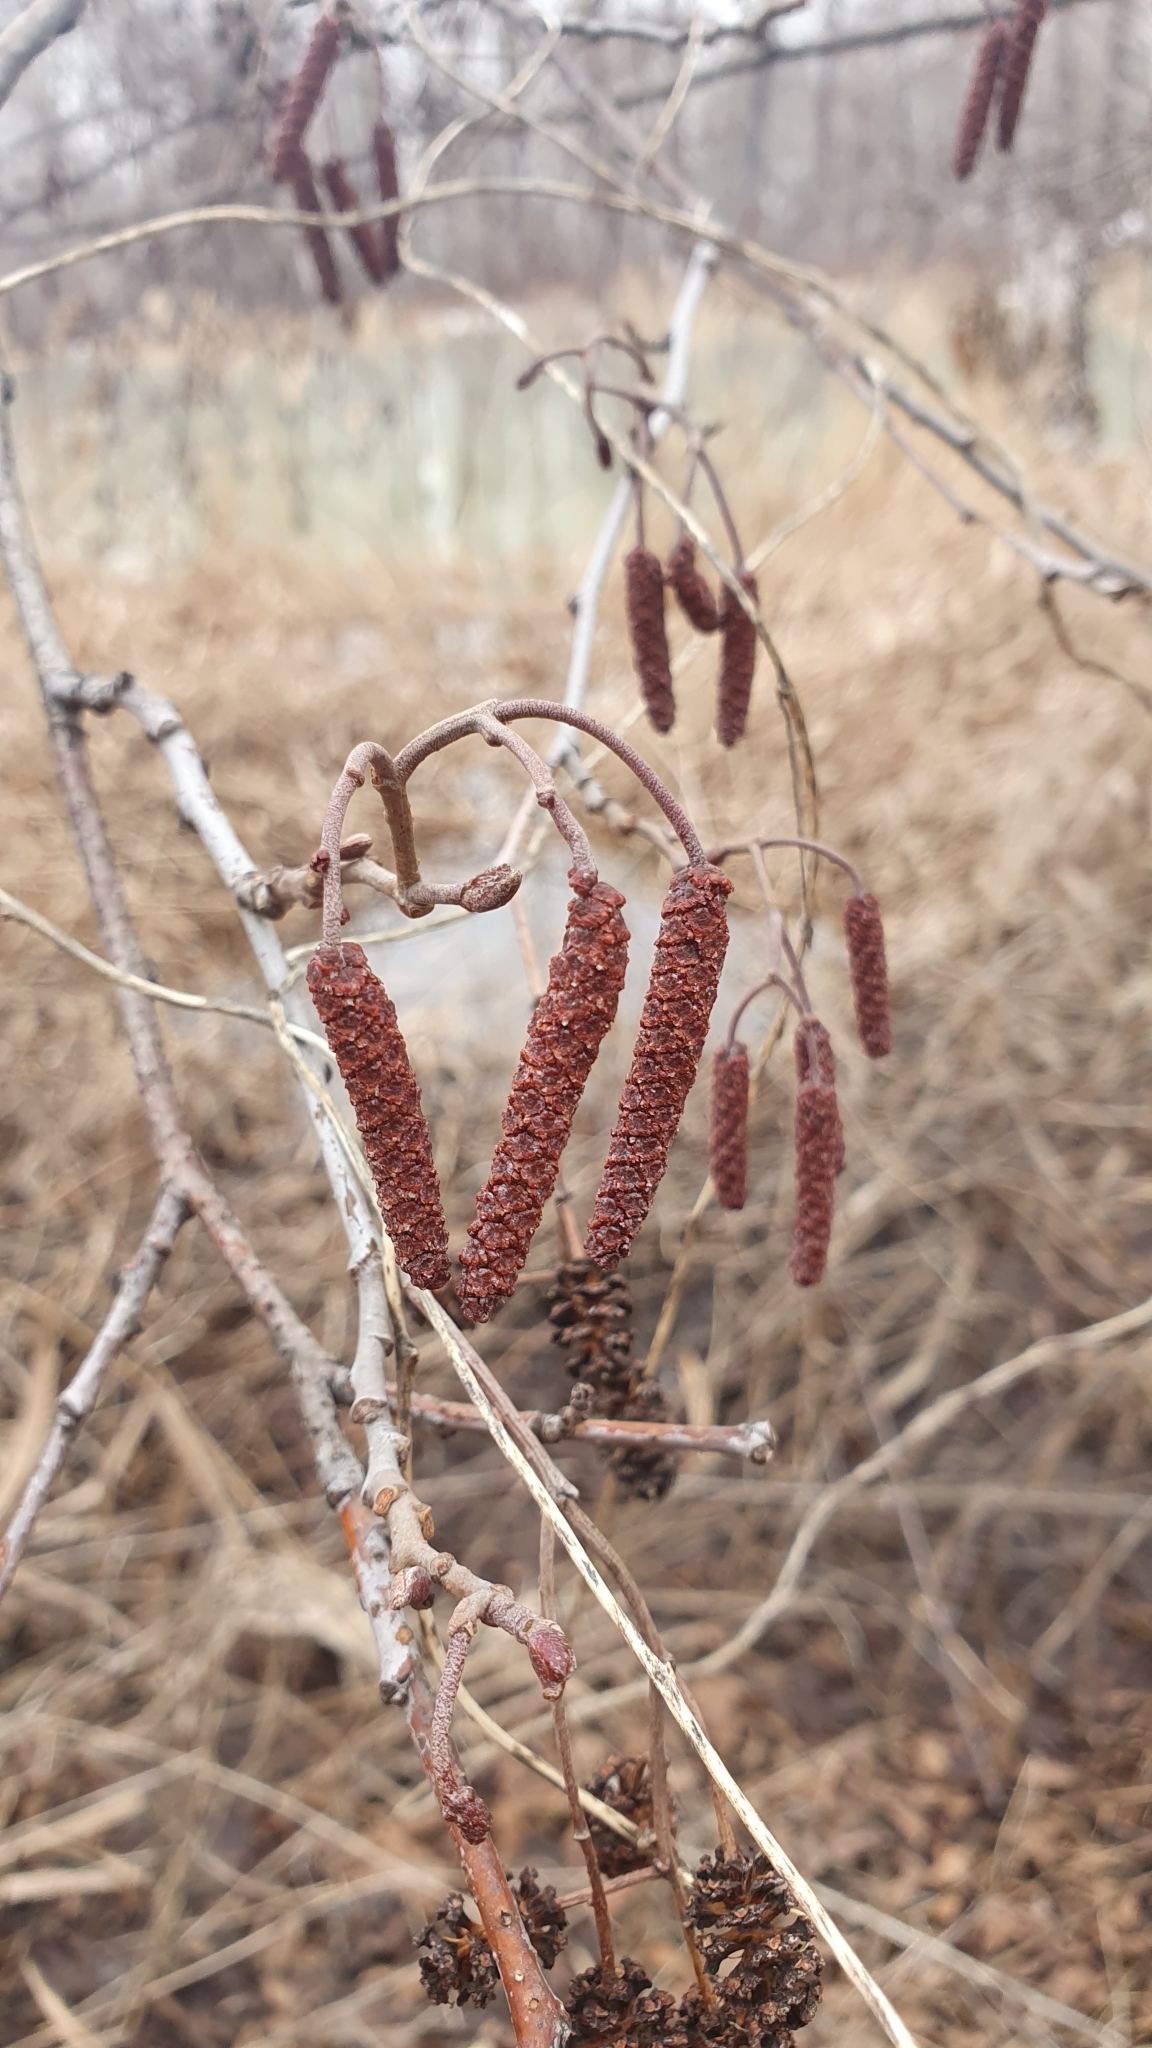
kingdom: Plantae
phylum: Tracheophyta
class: Magnoliopsida
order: Fagales
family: Betulaceae
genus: Alnus
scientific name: Alnus glutinosa
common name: Black alder
